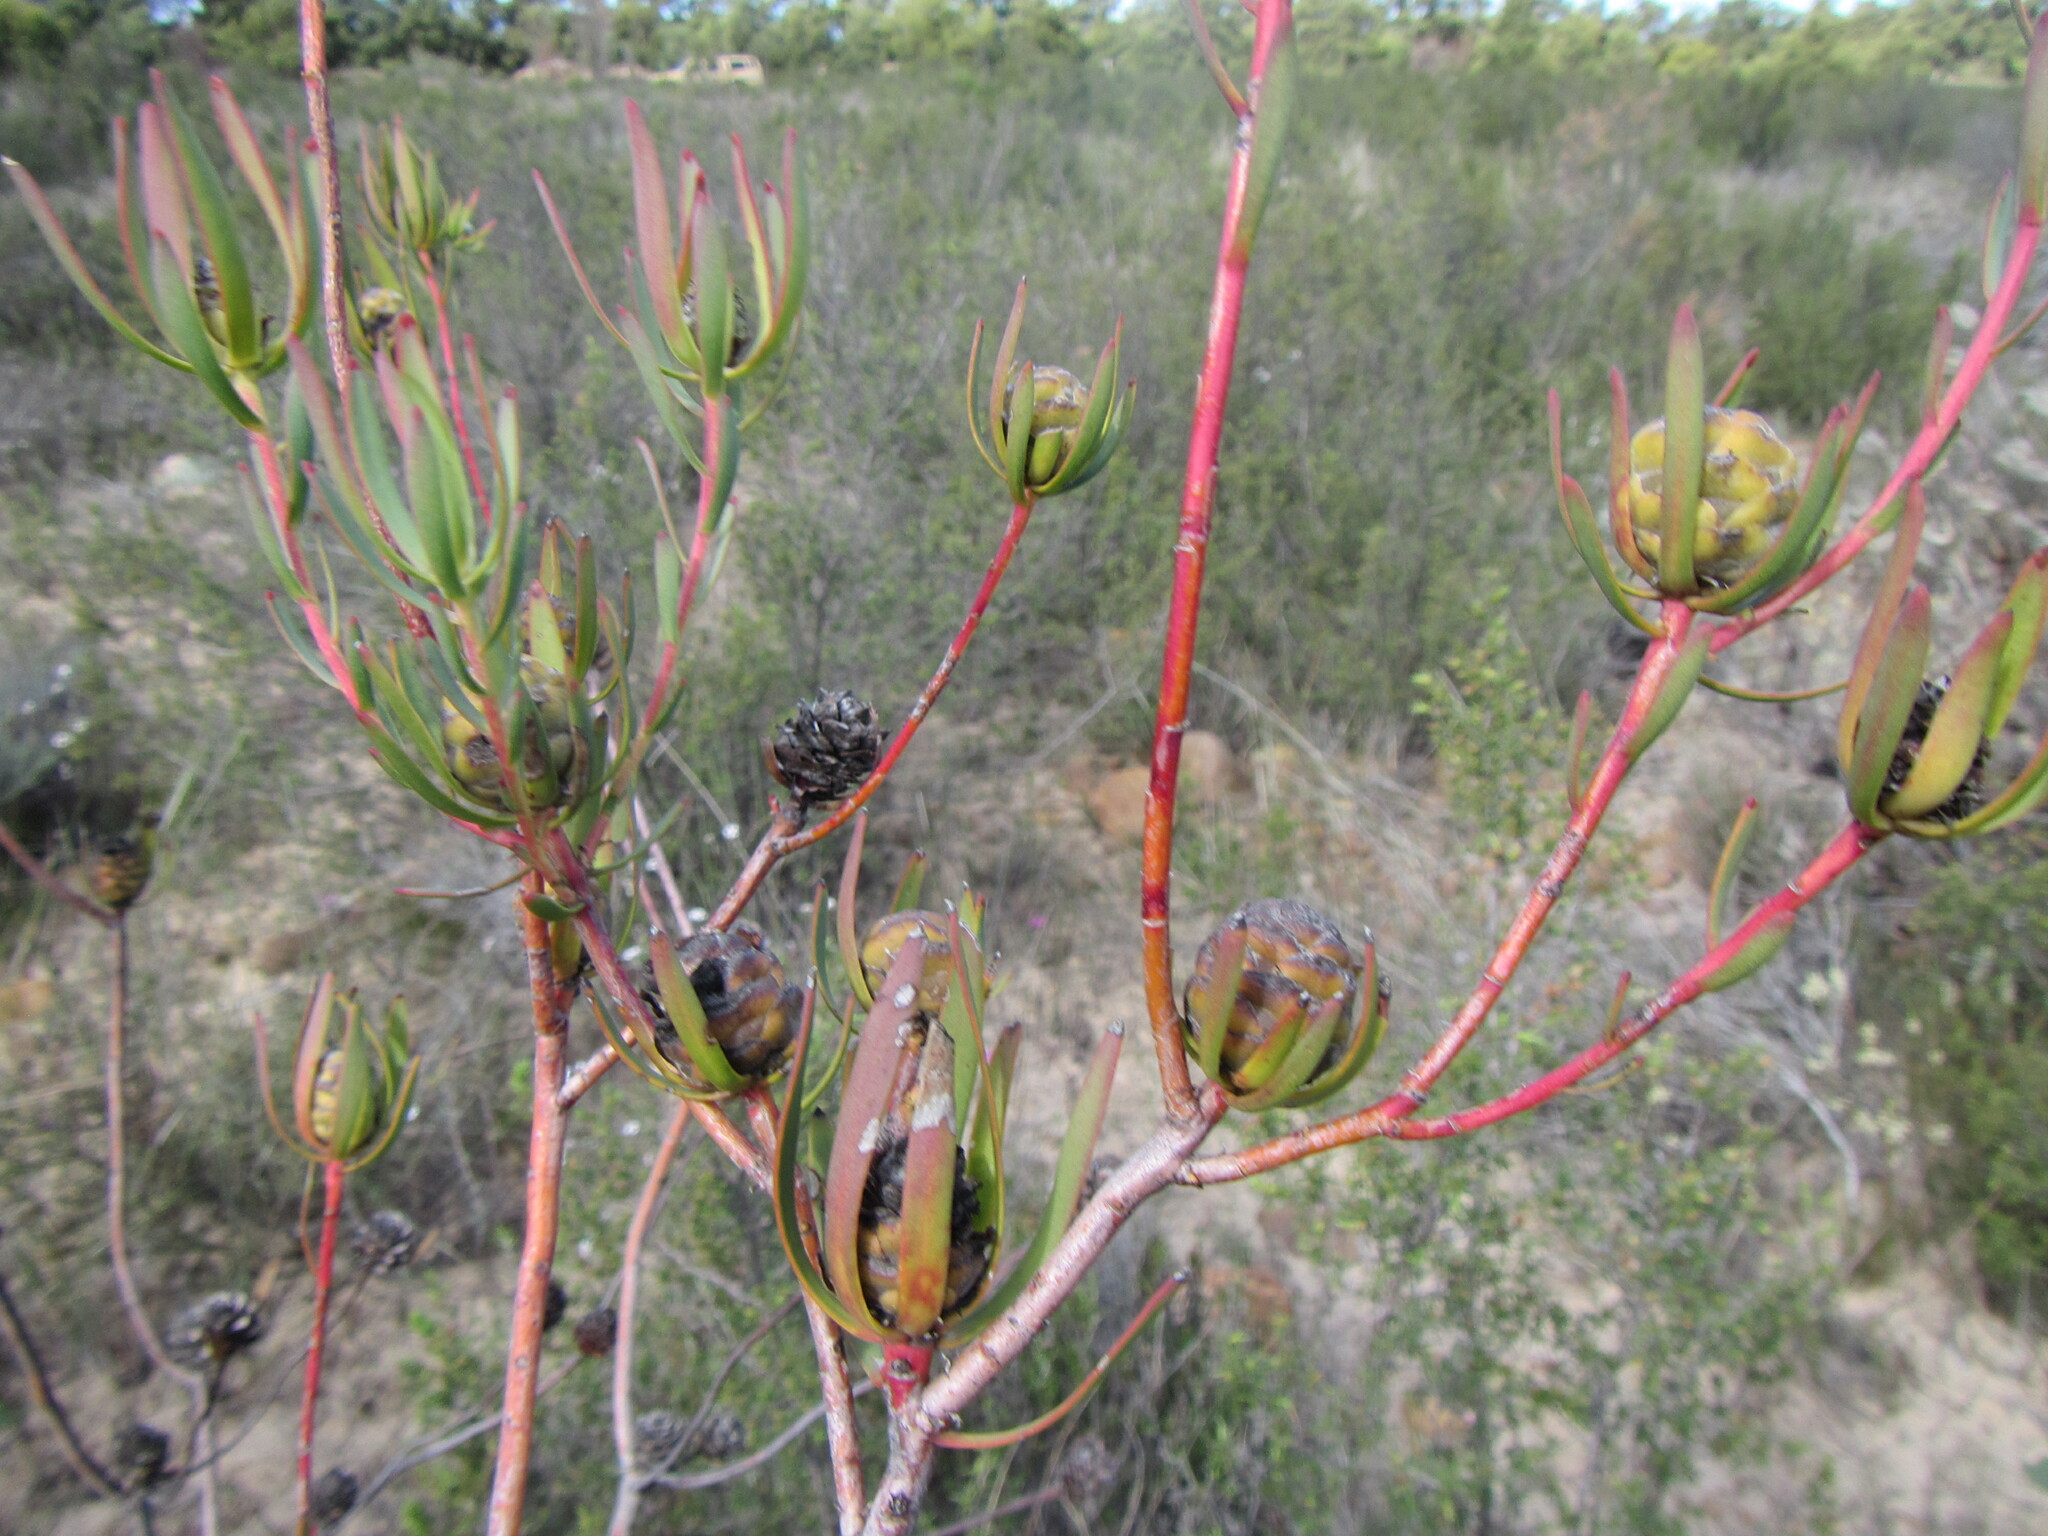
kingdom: Plantae
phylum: Tracheophyta
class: Magnoliopsida
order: Proteales
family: Proteaceae
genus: Leucadendron
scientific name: Leucadendron flexuosum
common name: Worcester conebush
